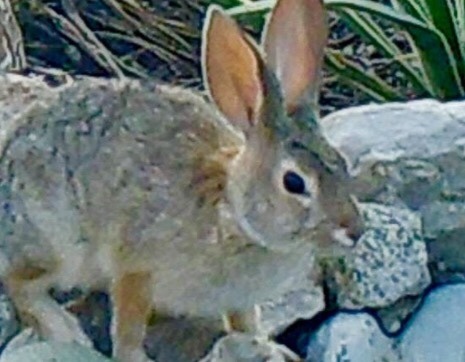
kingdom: Animalia
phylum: Chordata
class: Mammalia
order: Lagomorpha
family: Leporidae
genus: Sylvilagus
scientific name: Sylvilagus audubonii
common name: Desert cottontail
